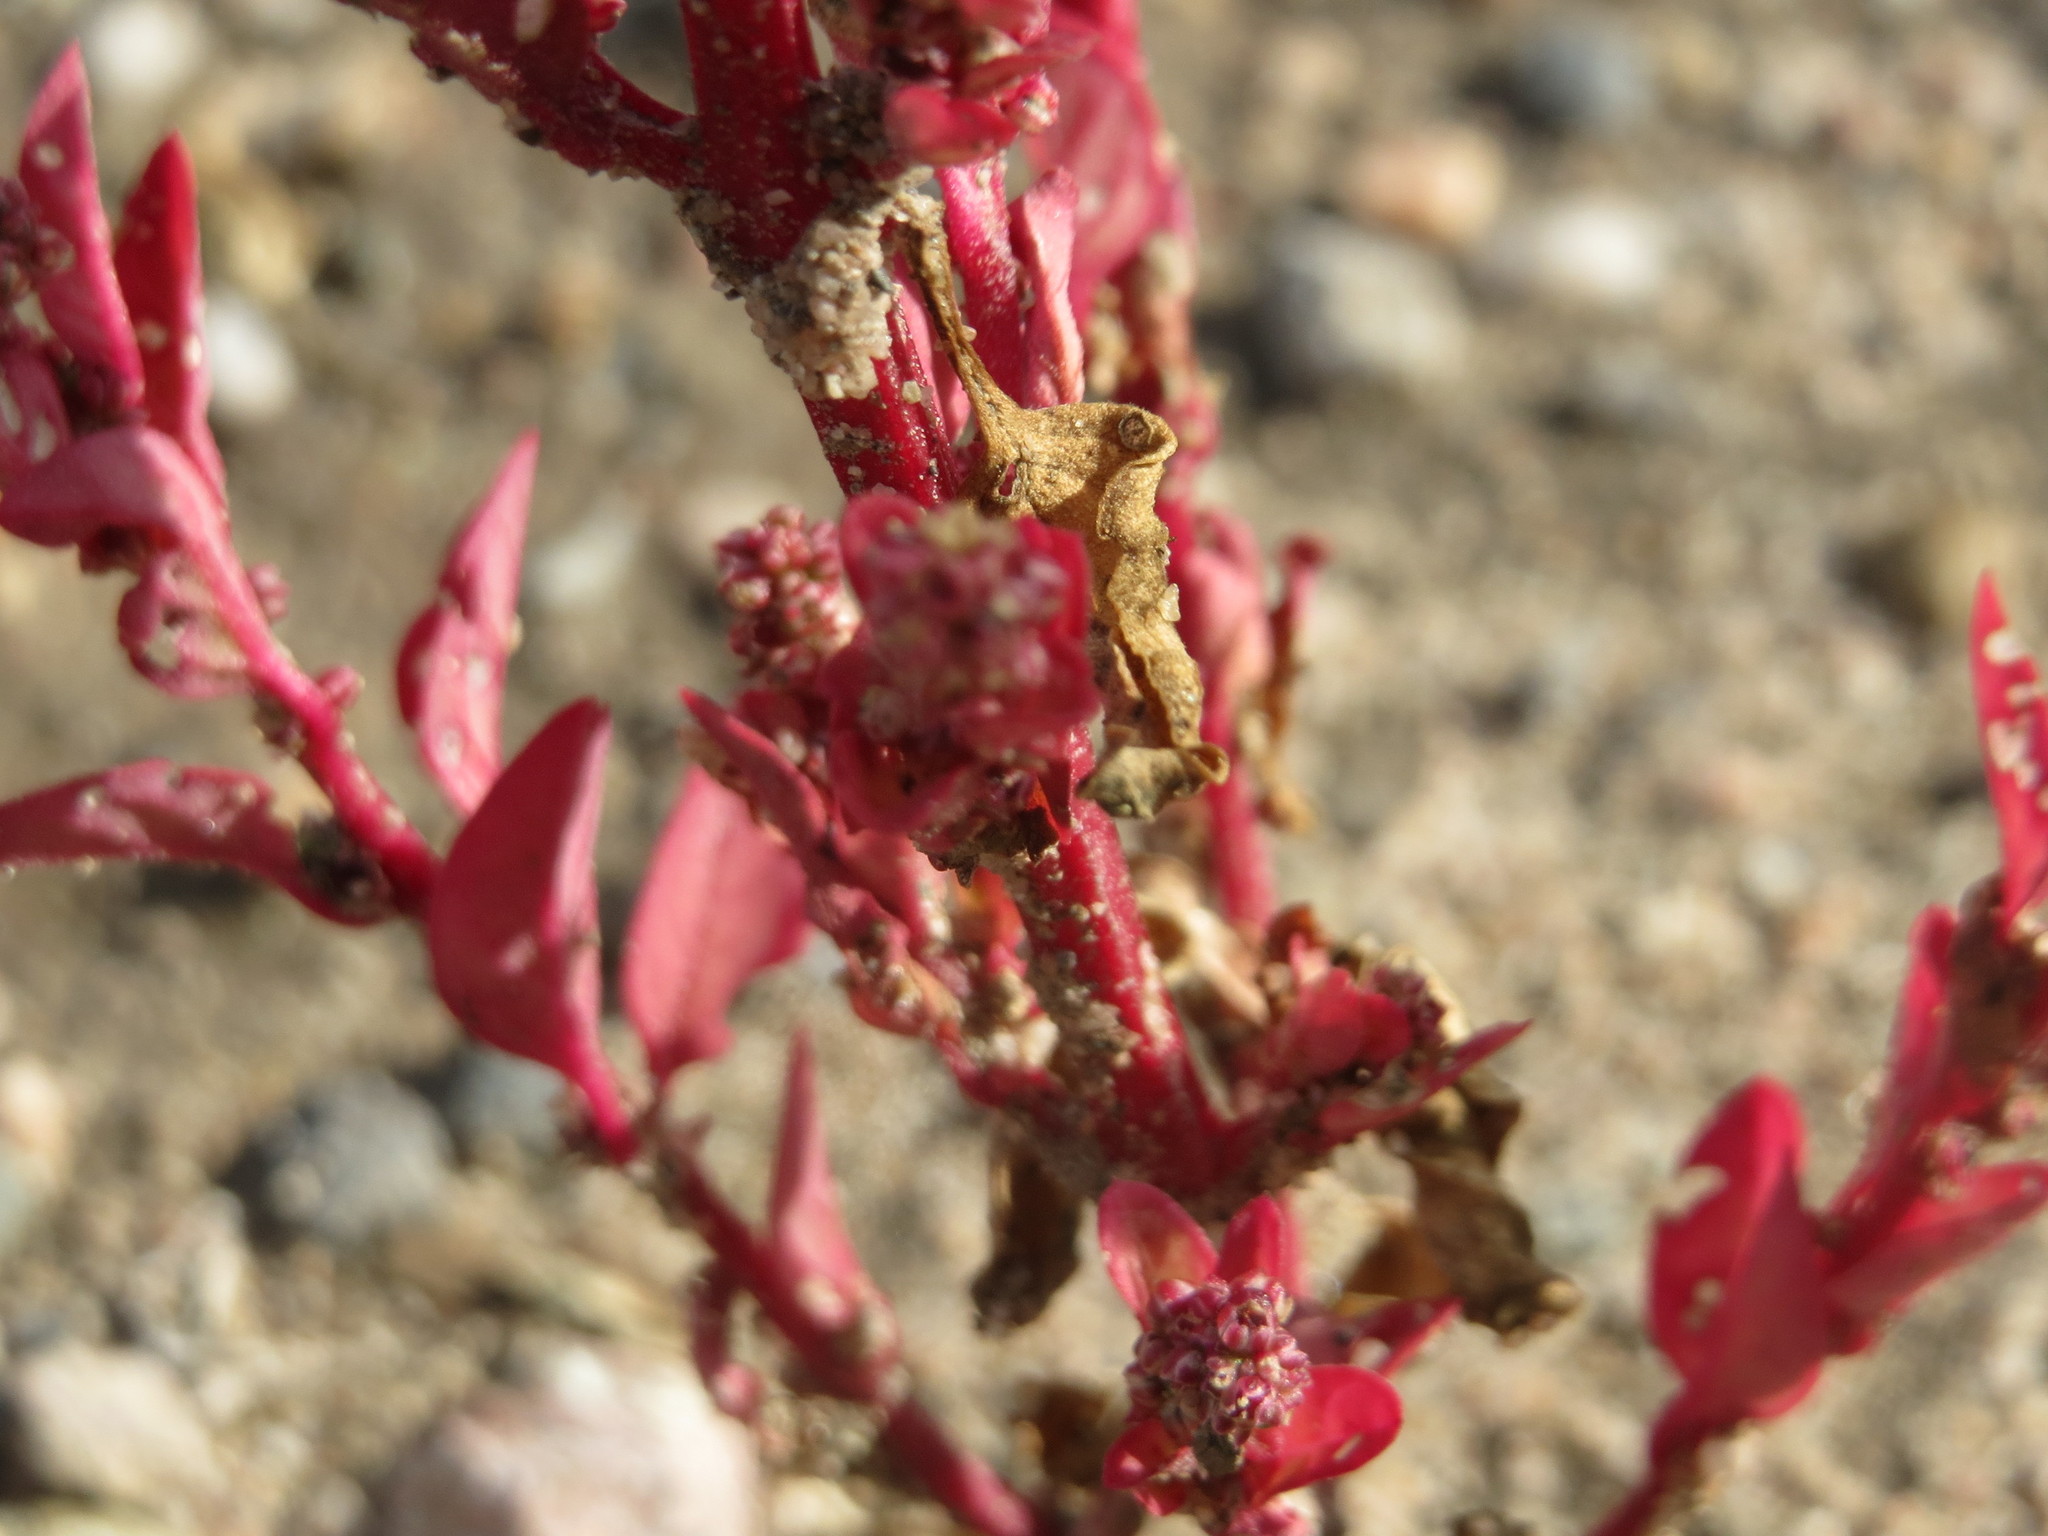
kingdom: Plantae
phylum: Tracheophyta
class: Magnoliopsida
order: Caryophyllales
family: Amaranthaceae
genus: Lipandra
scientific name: Lipandra polysperma
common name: Many-seed goosefoot
